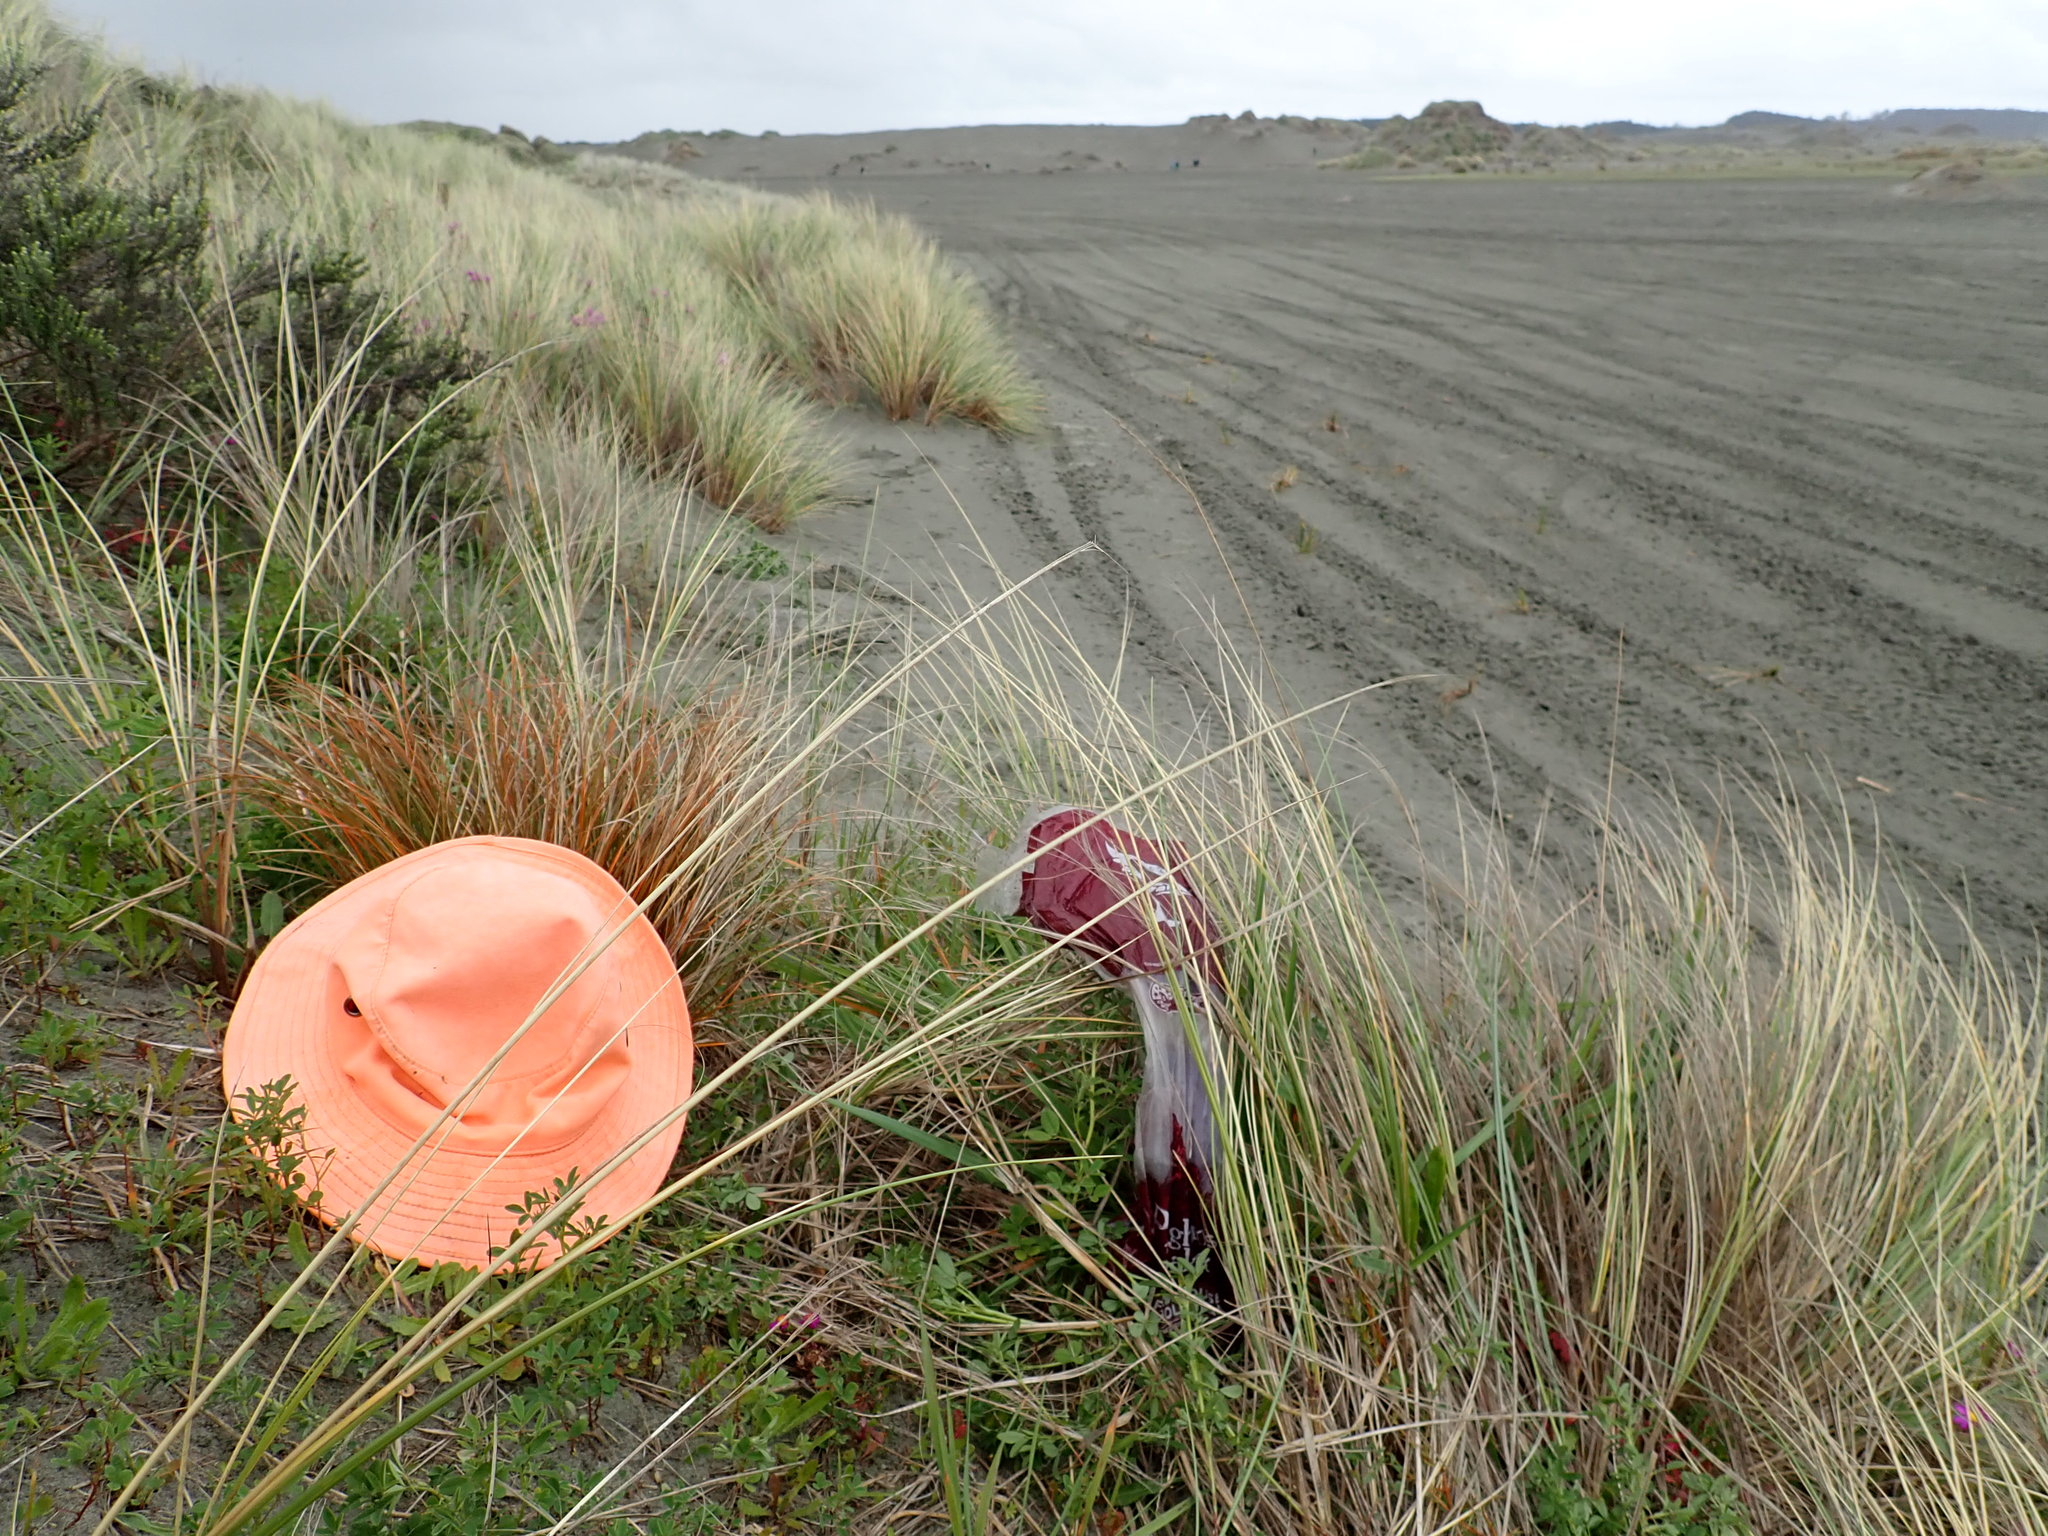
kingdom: Plantae
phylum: Tracheophyta
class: Liliopsida
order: Poales
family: Cyperaceae
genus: Carex
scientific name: Carex testacea
